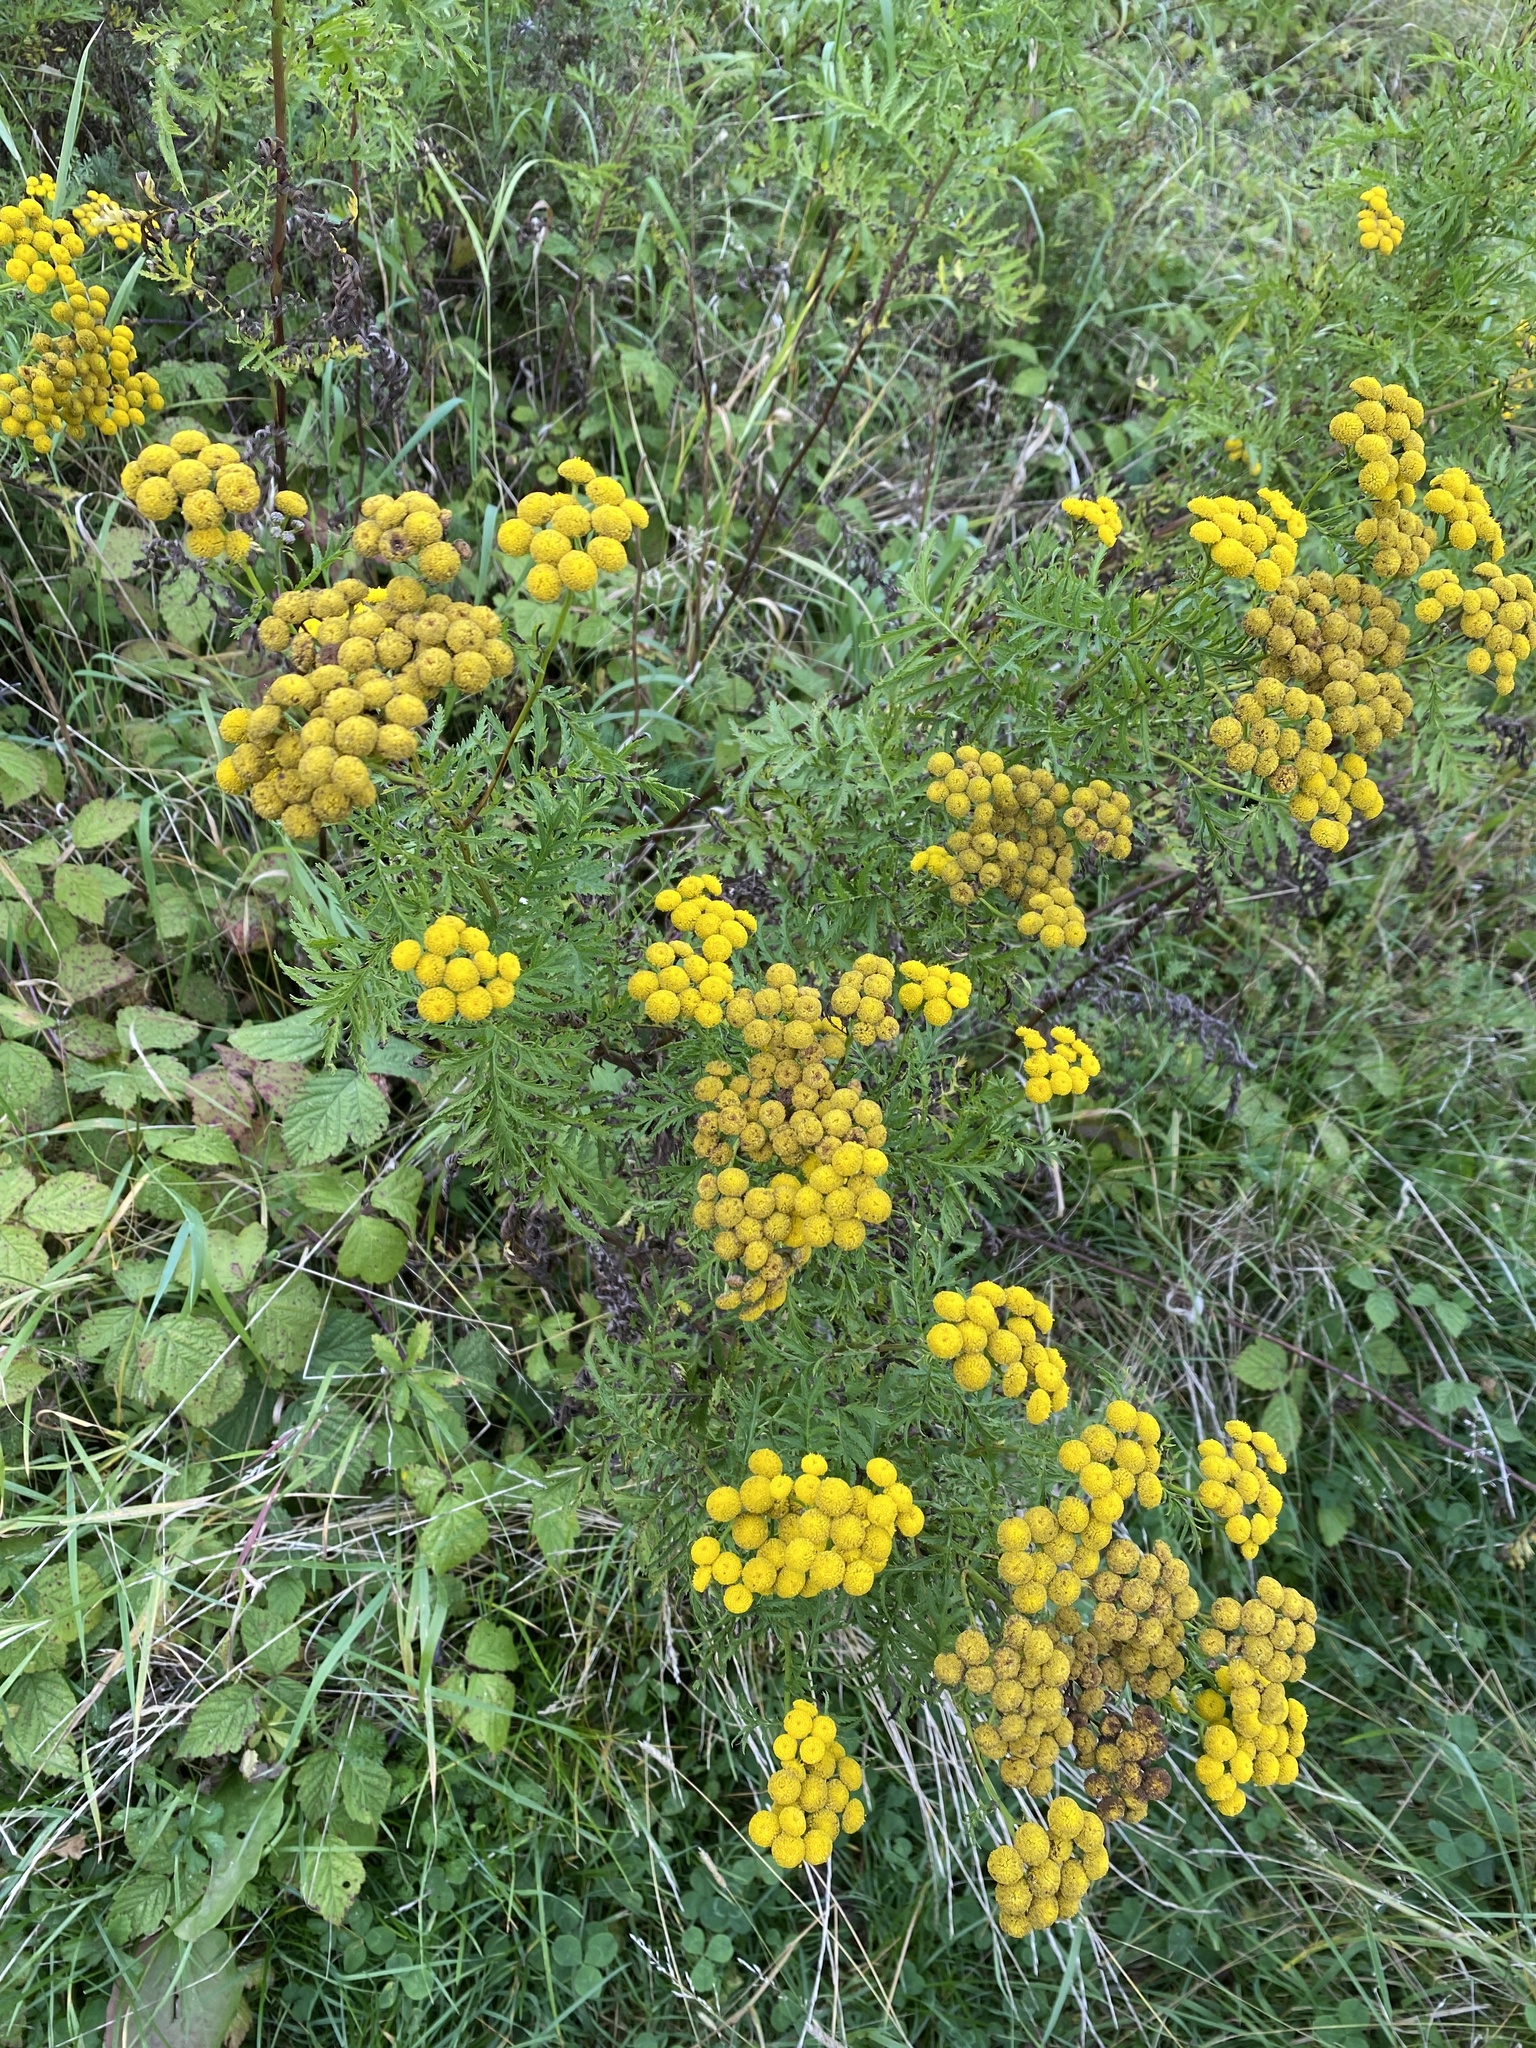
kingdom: Plantae
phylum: Tracheophyta
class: Magnoliopsida
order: Asterales
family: Asteraceae
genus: Tanacetum
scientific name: Tanacetum vulgare
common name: Common tansy
